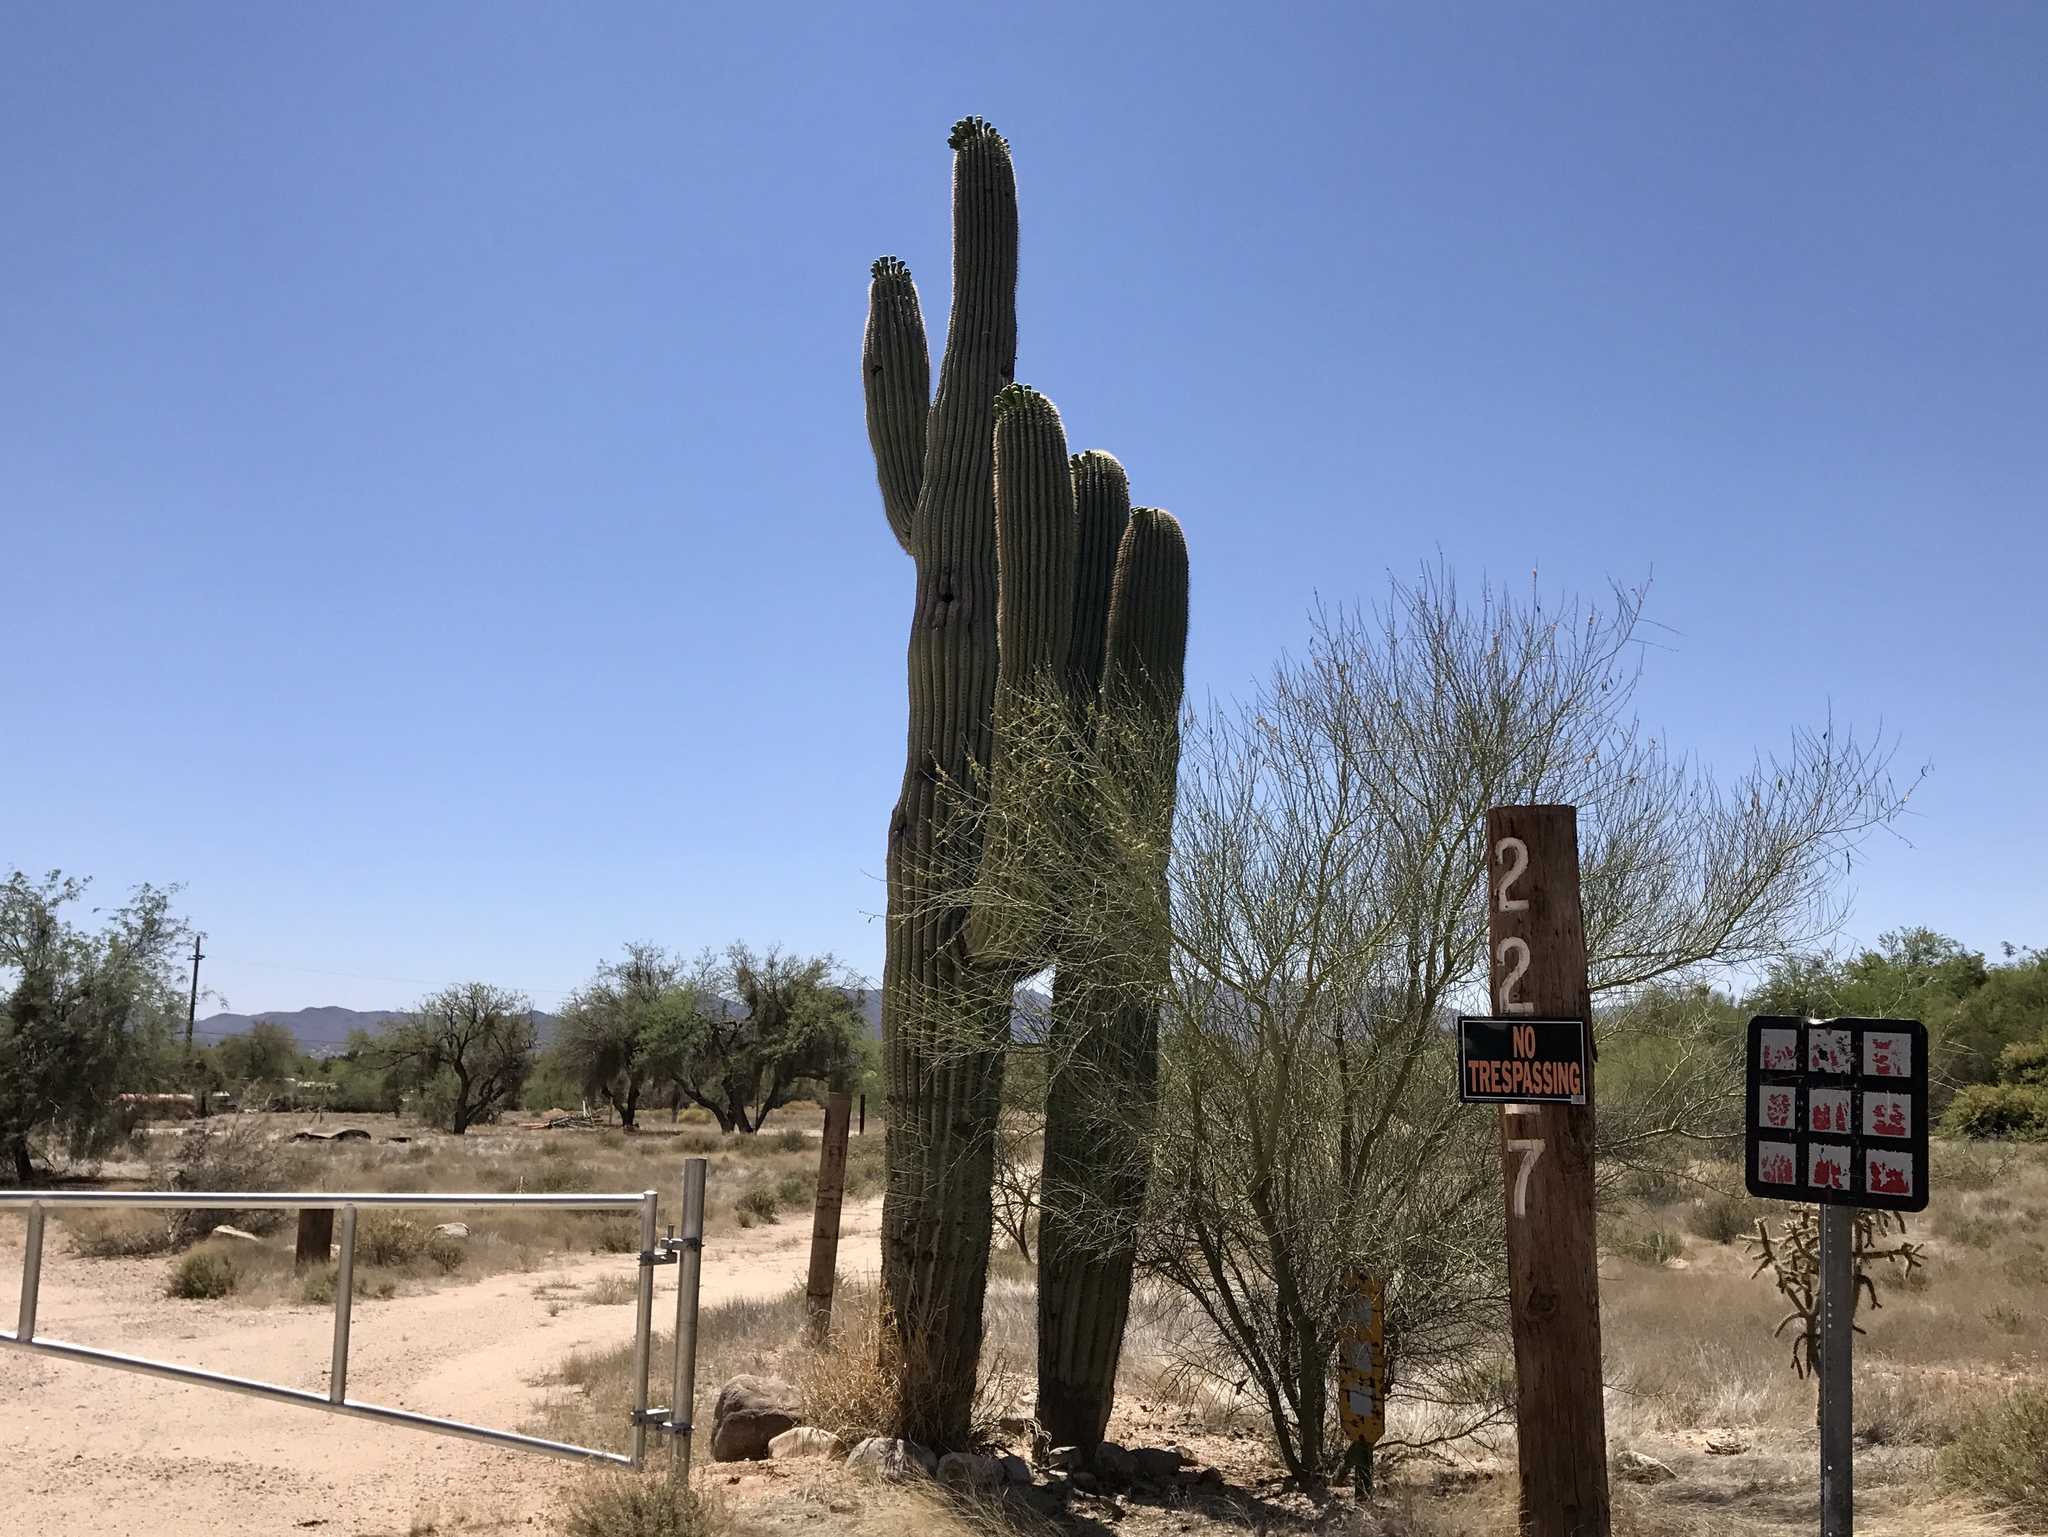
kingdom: Plantae
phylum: Tracheophyta
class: Magnoliopsida
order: Caryophyllales
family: Cactaceae
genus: Carnegiea
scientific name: Carnegiea gigantea
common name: Saguaro
